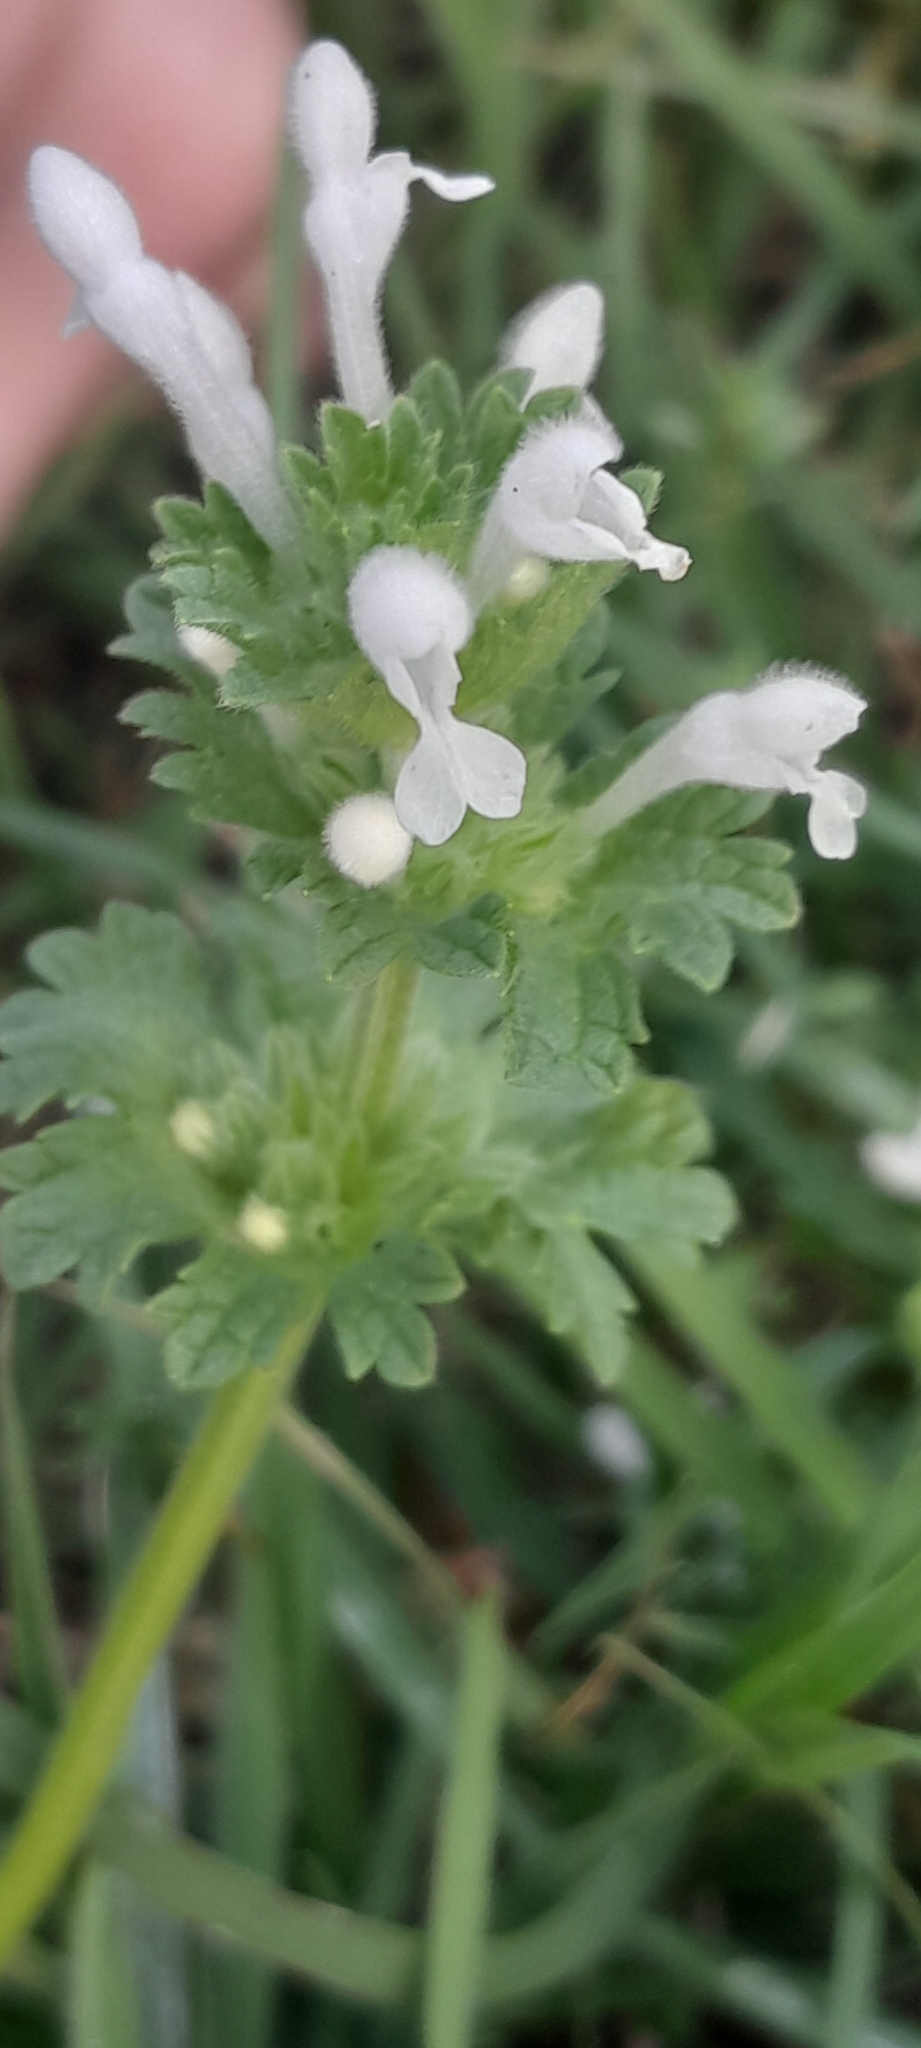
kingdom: Plantae
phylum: Tracheophyta
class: Magnoliopsida
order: Lamiales
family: Lamiaceae
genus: Lamium
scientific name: Lamium amplexicaule
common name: Henbit dead-nettle
